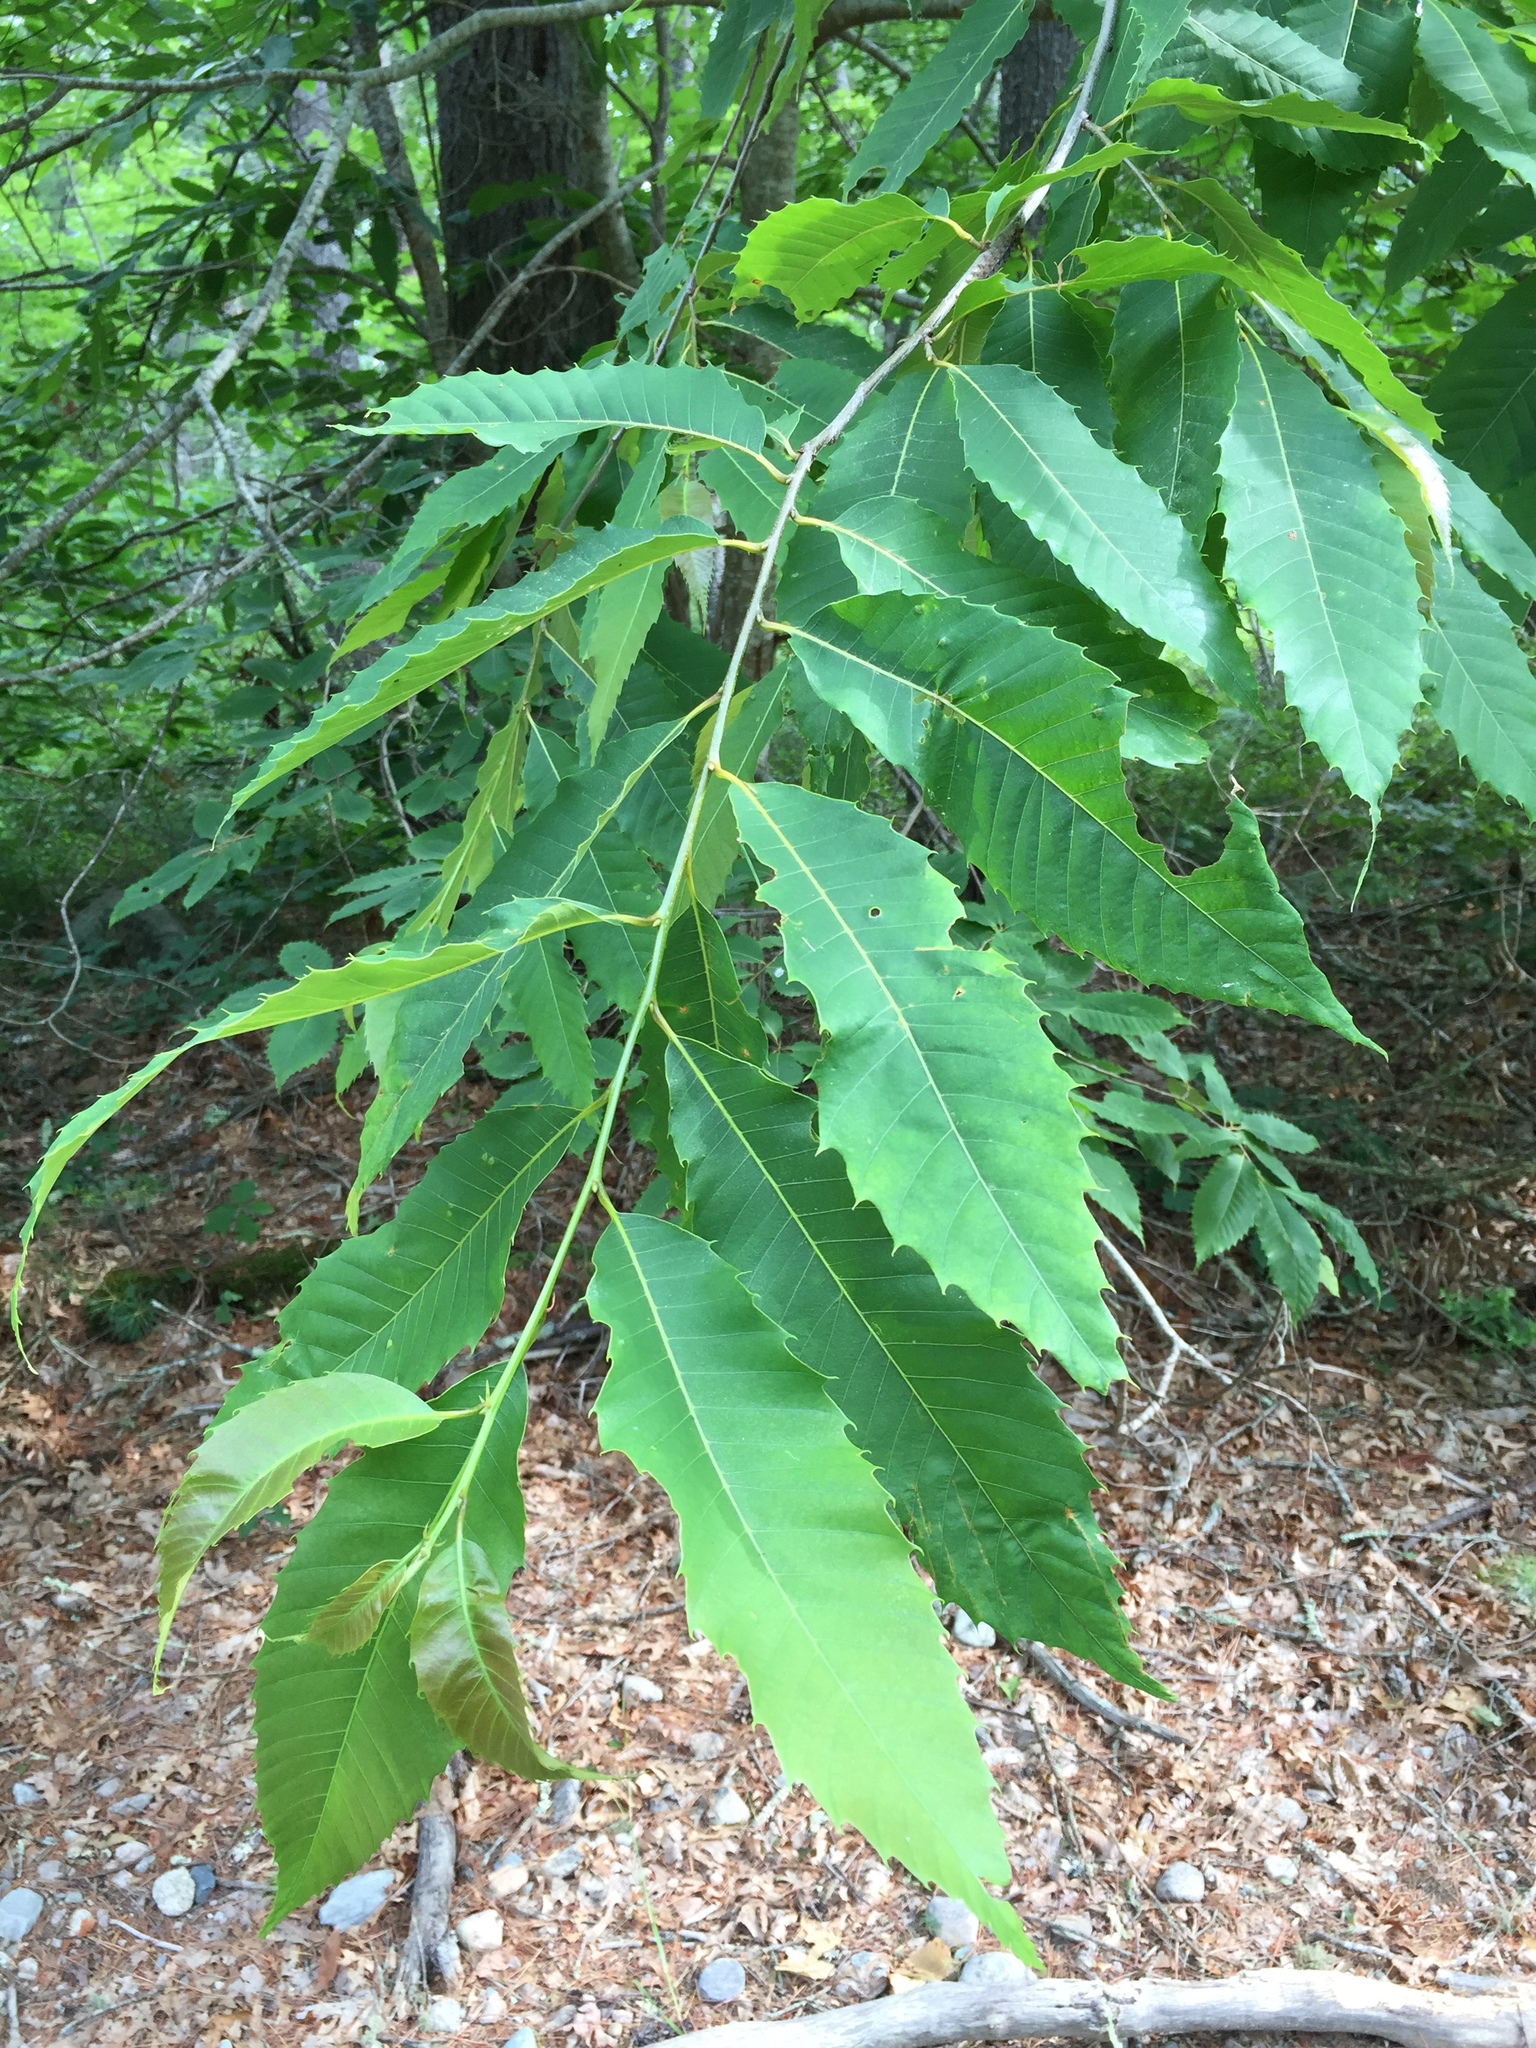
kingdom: Plantae
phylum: Tracheophyta
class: Magnoliopsida
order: Fagales
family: Fagaceae
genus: Castanea
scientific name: Castanea dentata
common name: American chestnut
